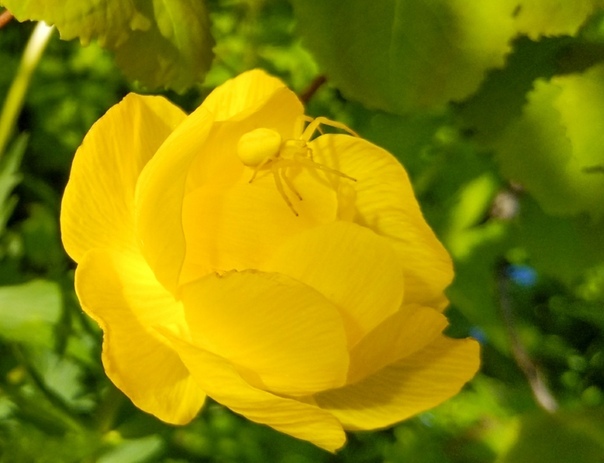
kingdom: Animalia
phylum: Arthropoda
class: Arachnida
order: Araneae
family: Thomisidae
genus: Misumena
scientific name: Misumena vatia
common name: Goldenrod crab spider
